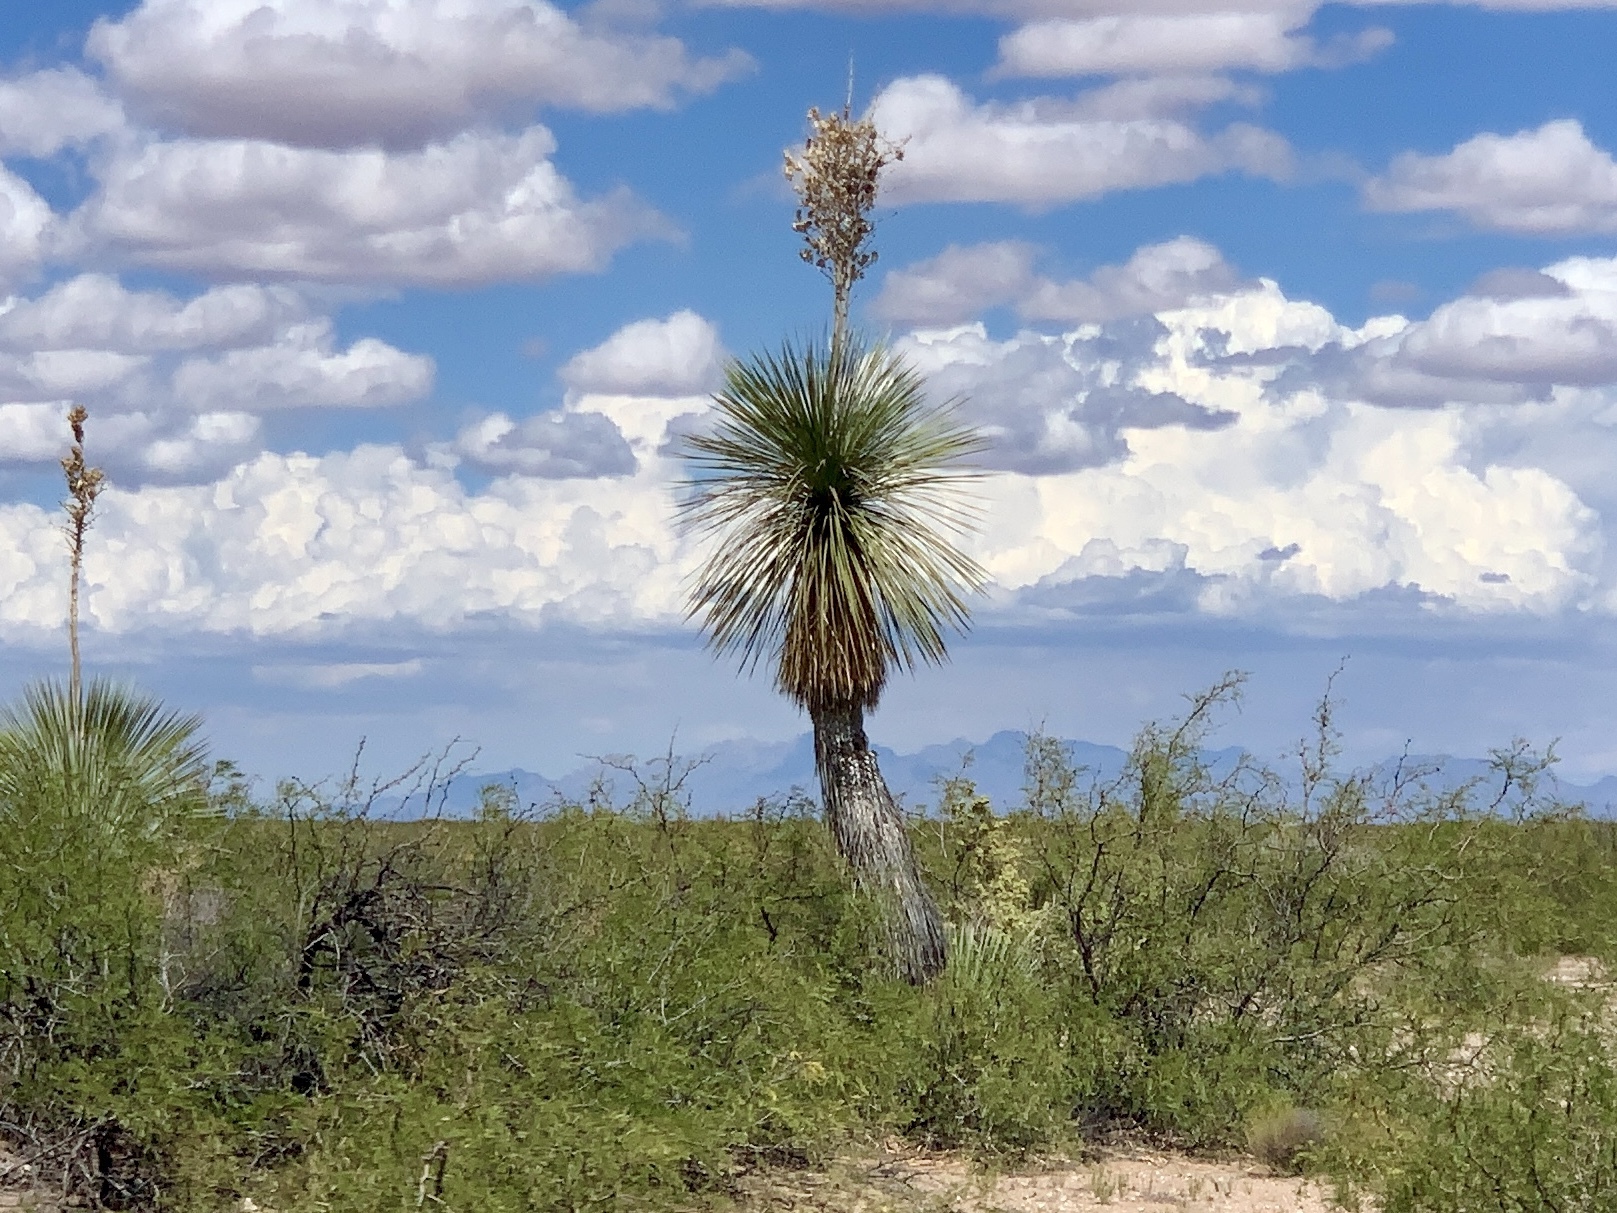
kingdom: Plantae
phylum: Tracheophyta
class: Liliopsida
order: Asparagales
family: Asparagaceae
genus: Yucca
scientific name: Yucca elata
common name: Palmella
